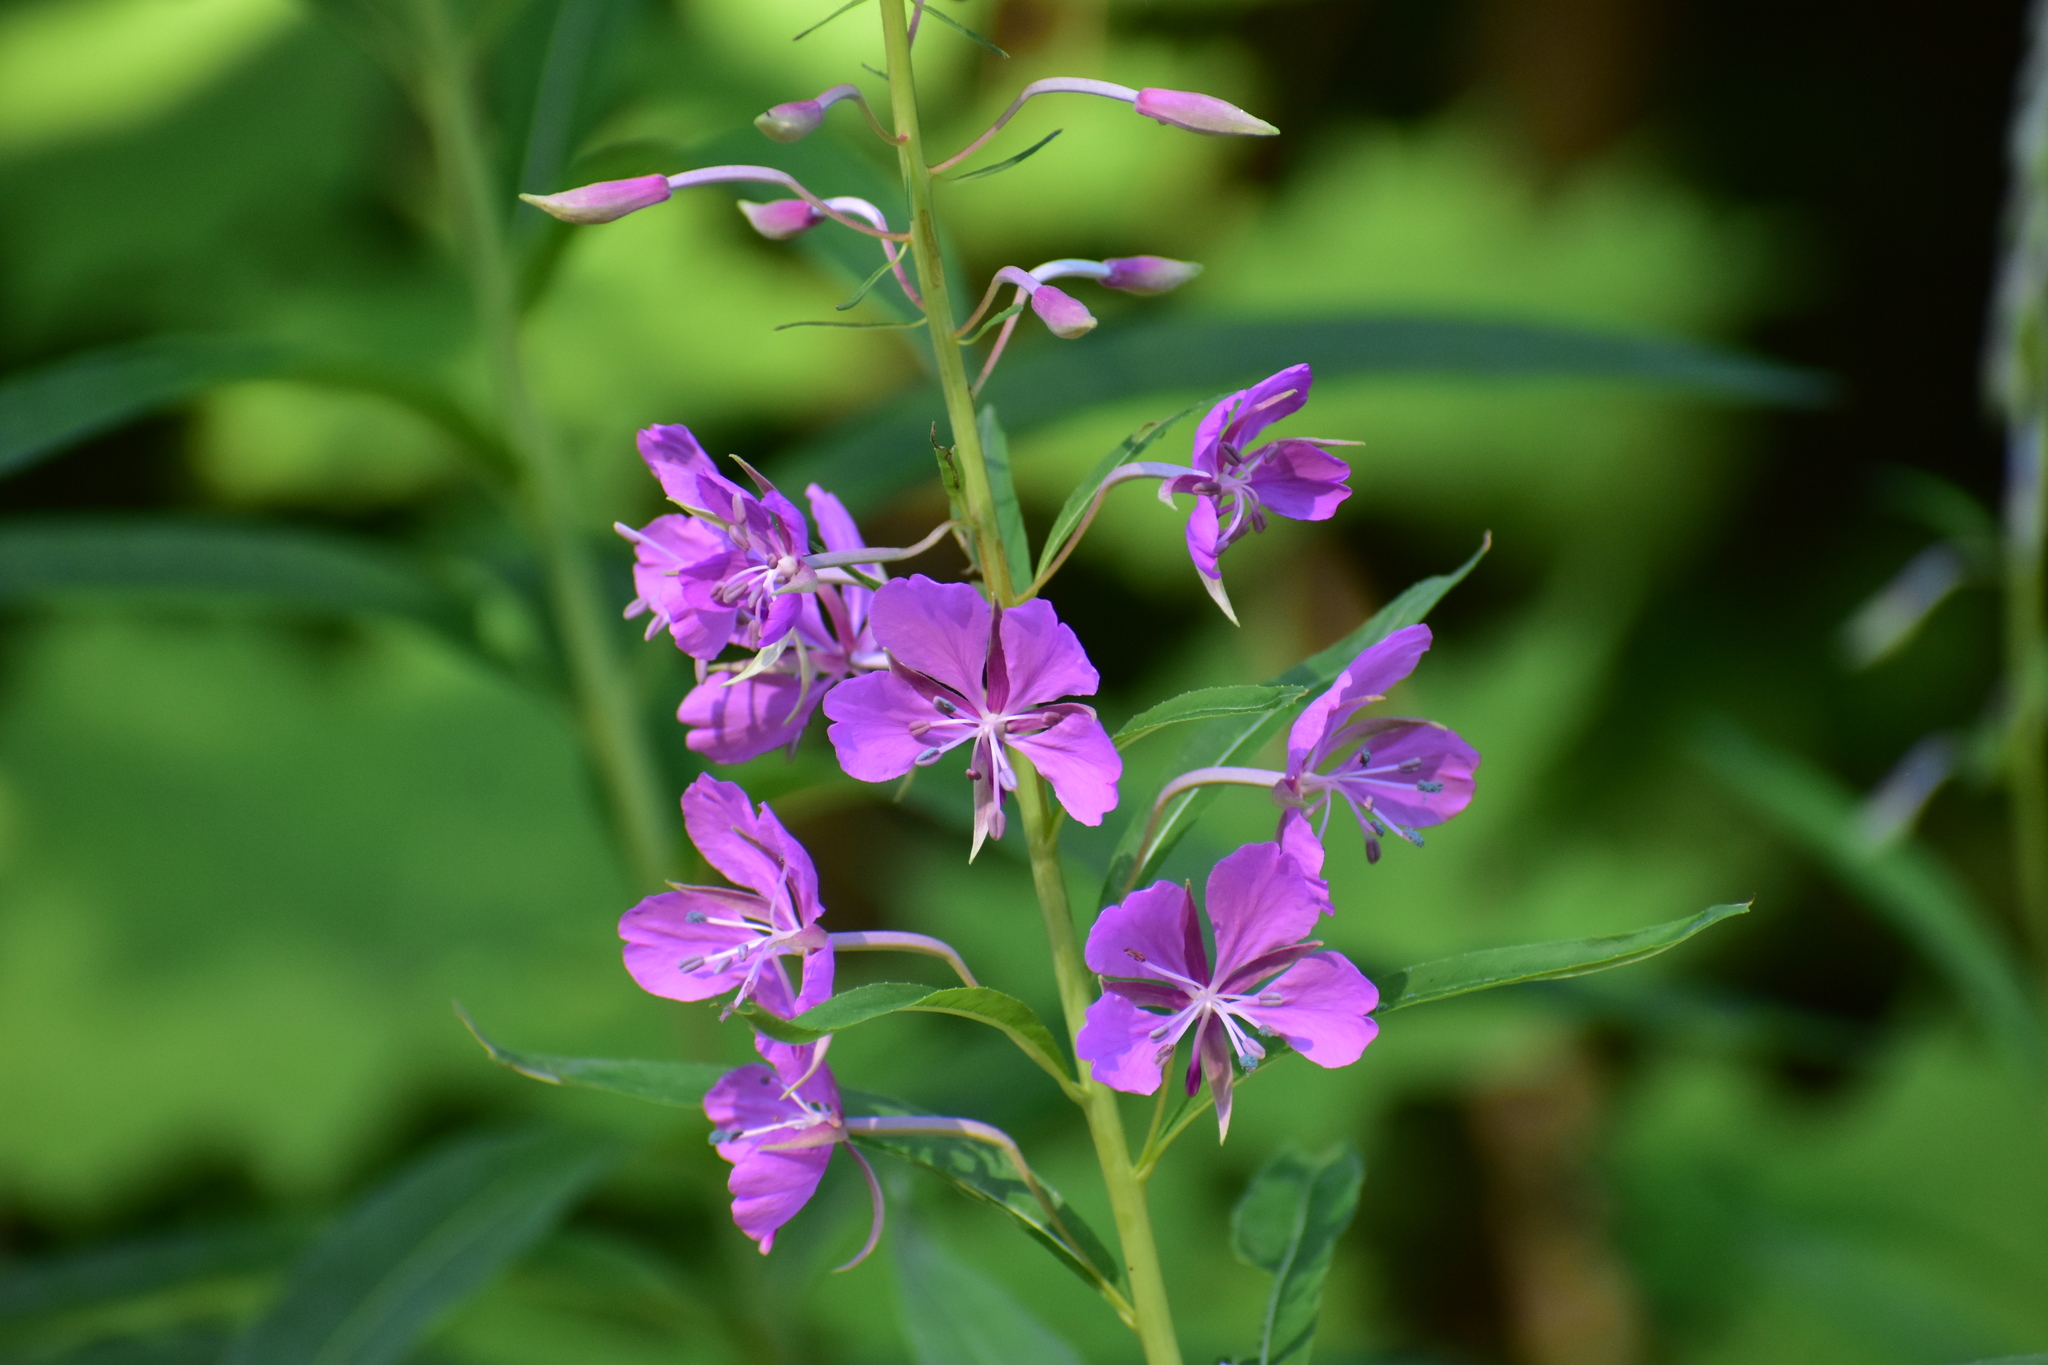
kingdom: Plantae
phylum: Tracheophyta
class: Magnoliopsida
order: Myrtales
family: Onagraceae
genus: Chamaenerion
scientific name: Chamaenerion angustifolium
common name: Fireweed
